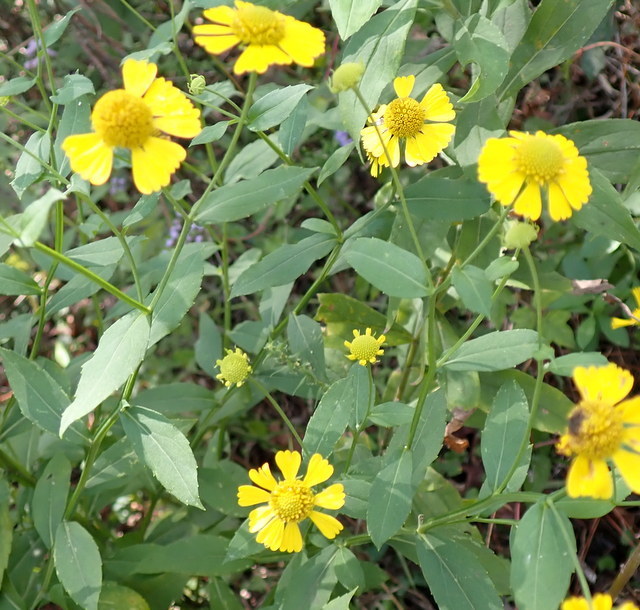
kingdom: Plantae
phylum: Tracheophyta
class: Magnoliopsida
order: Asterales
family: Asteraceae
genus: Helenium
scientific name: Helenium autumnale
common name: Sneezeweed
